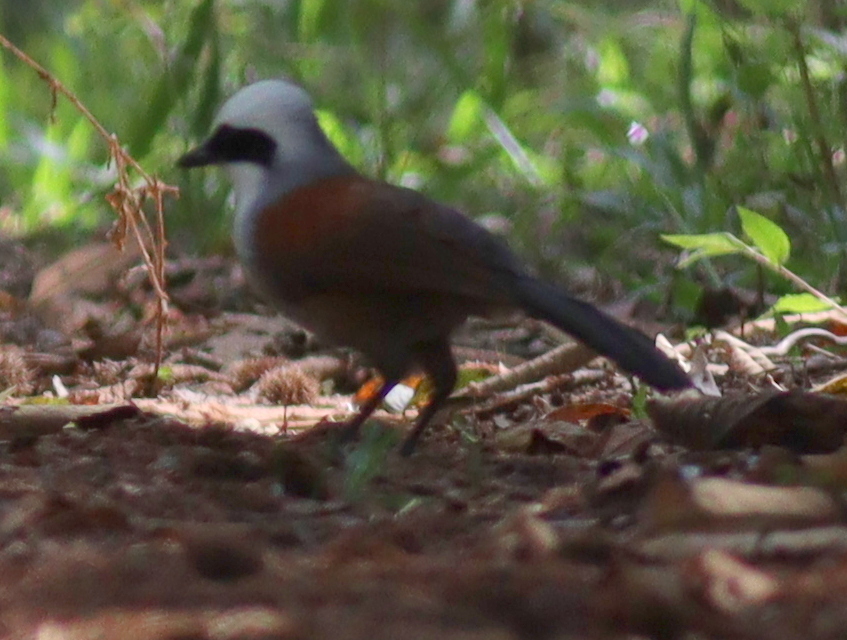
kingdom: Animalia
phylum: Chordata
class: Aves
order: Passeriformes
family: Leiothrichidae
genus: Garrulax
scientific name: Garrulax leucolophus
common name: White-crested laughingthrush
